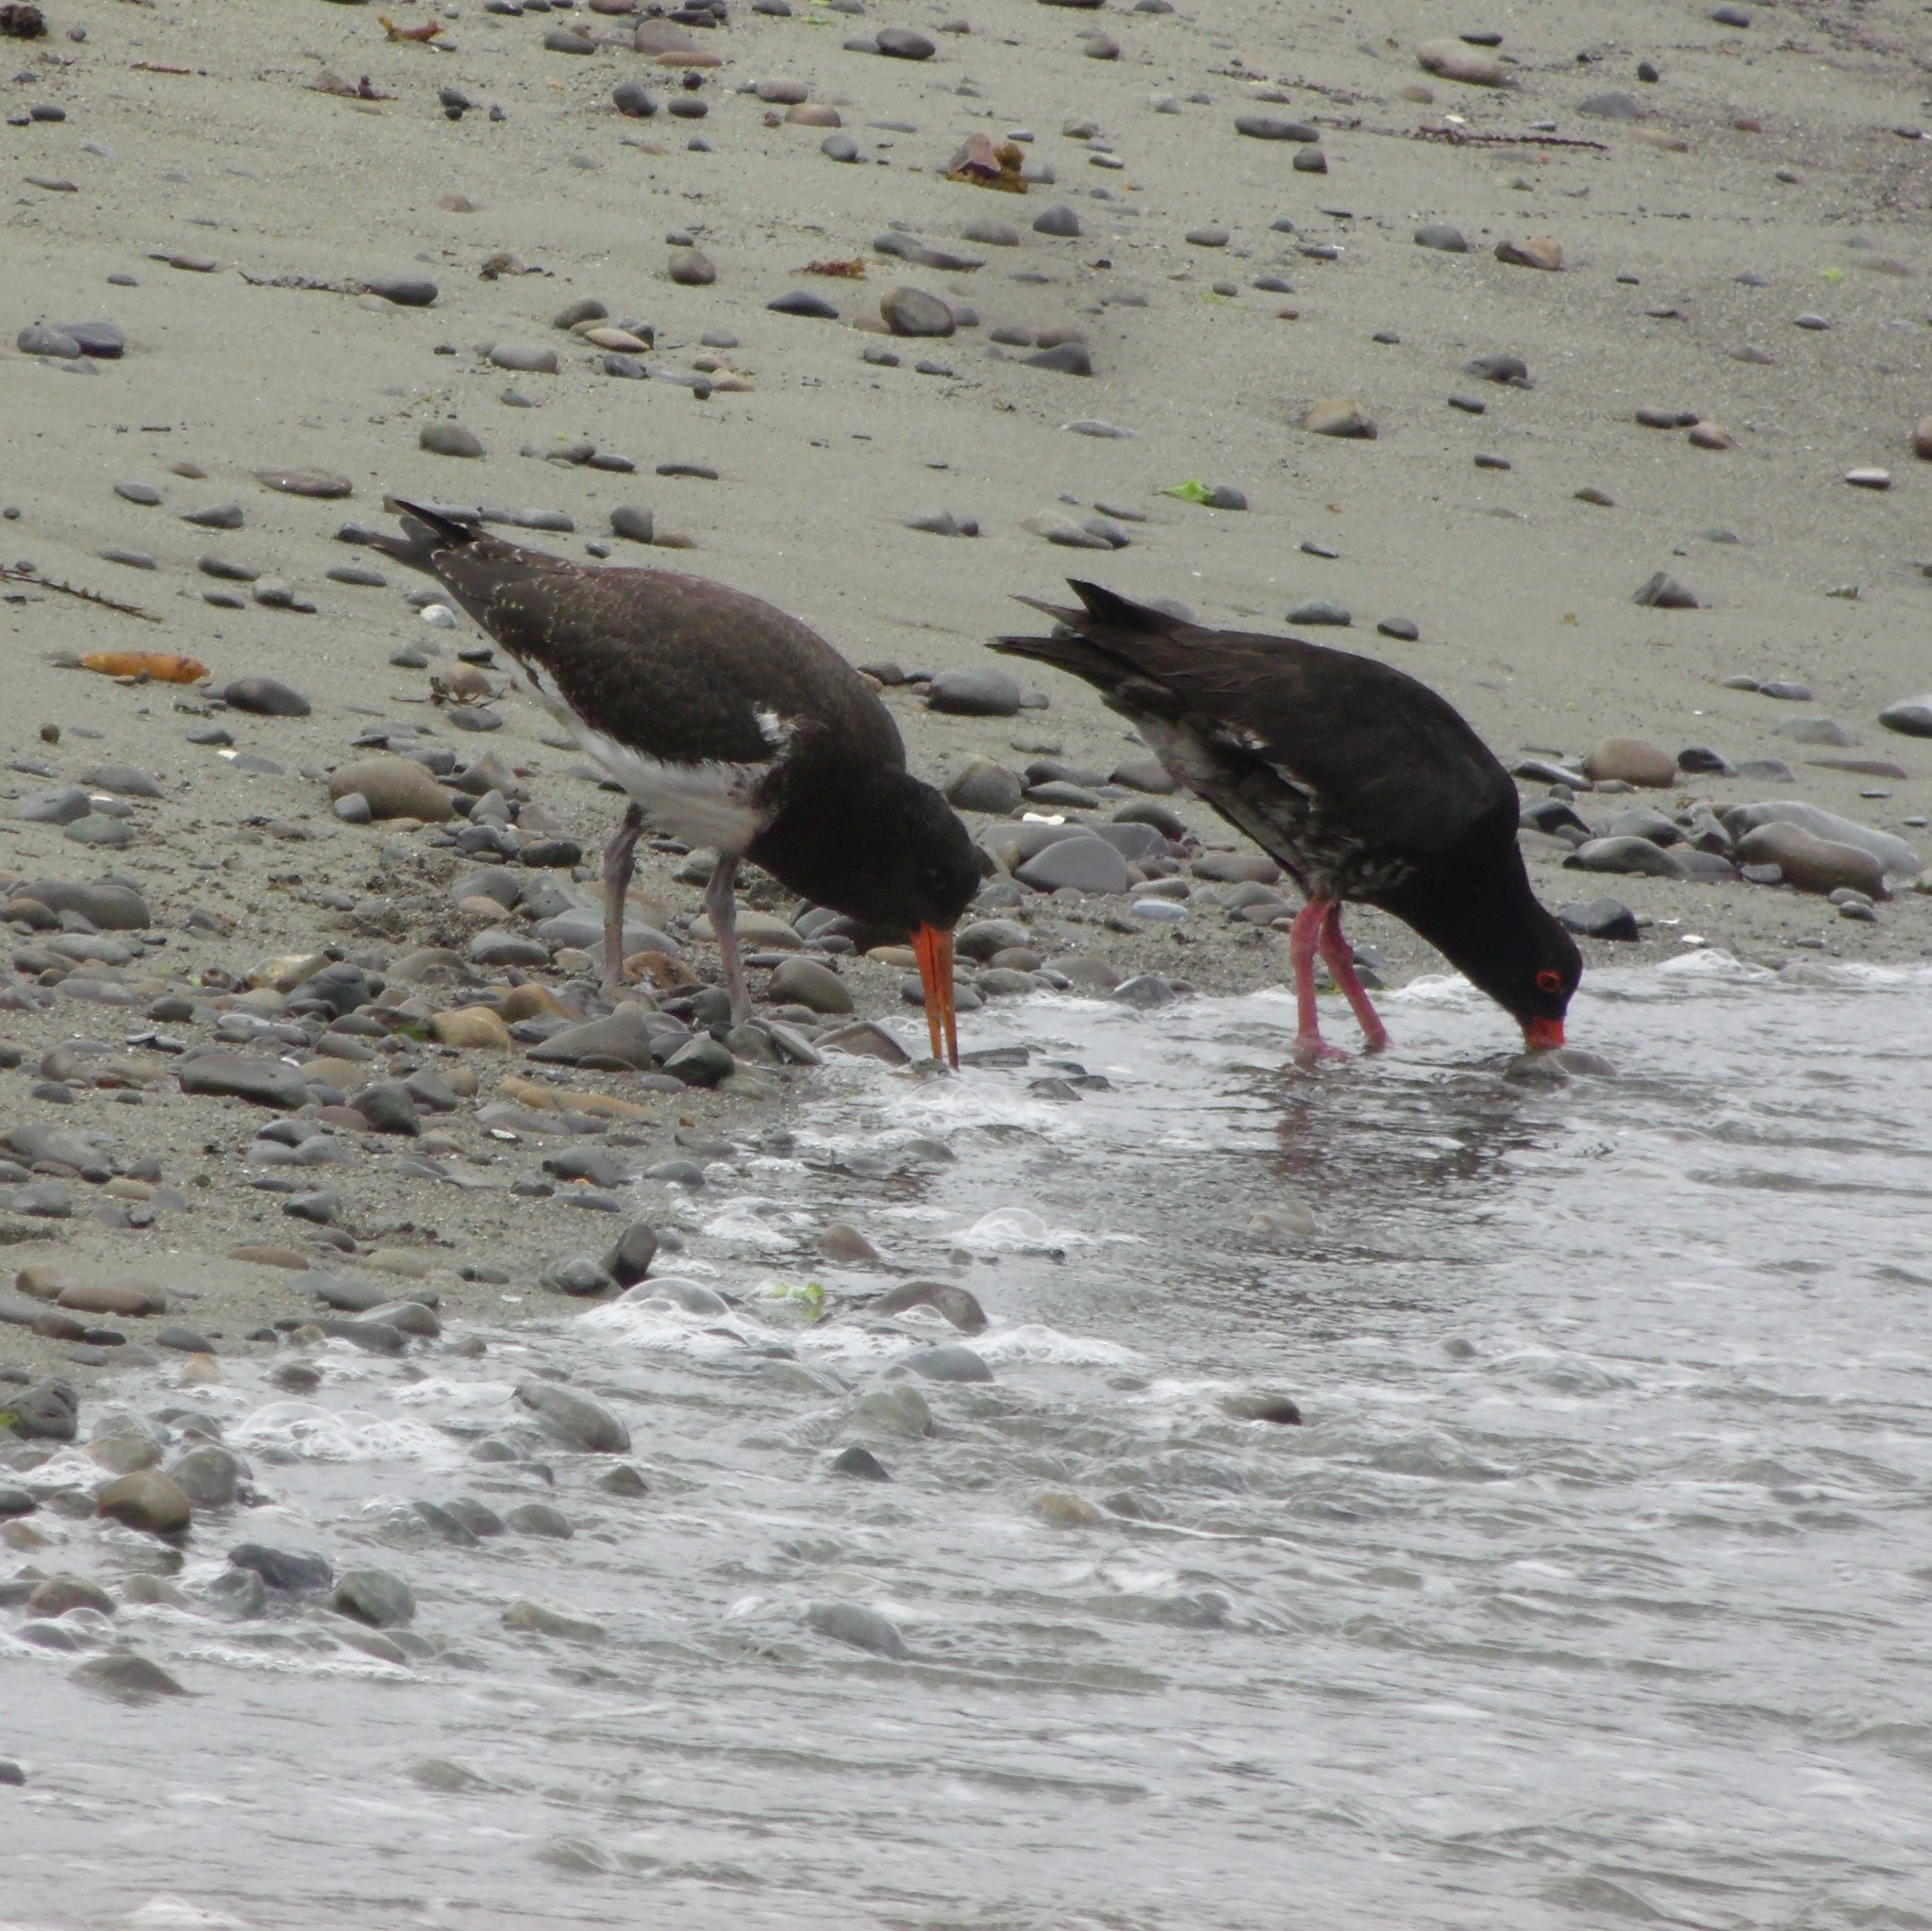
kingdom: Animalia
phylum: Chordata
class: Aves
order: Charadriiformes
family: Haematopodidae
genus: Haematopus
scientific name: Haematopus unicolor
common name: Variable oystercatcher
